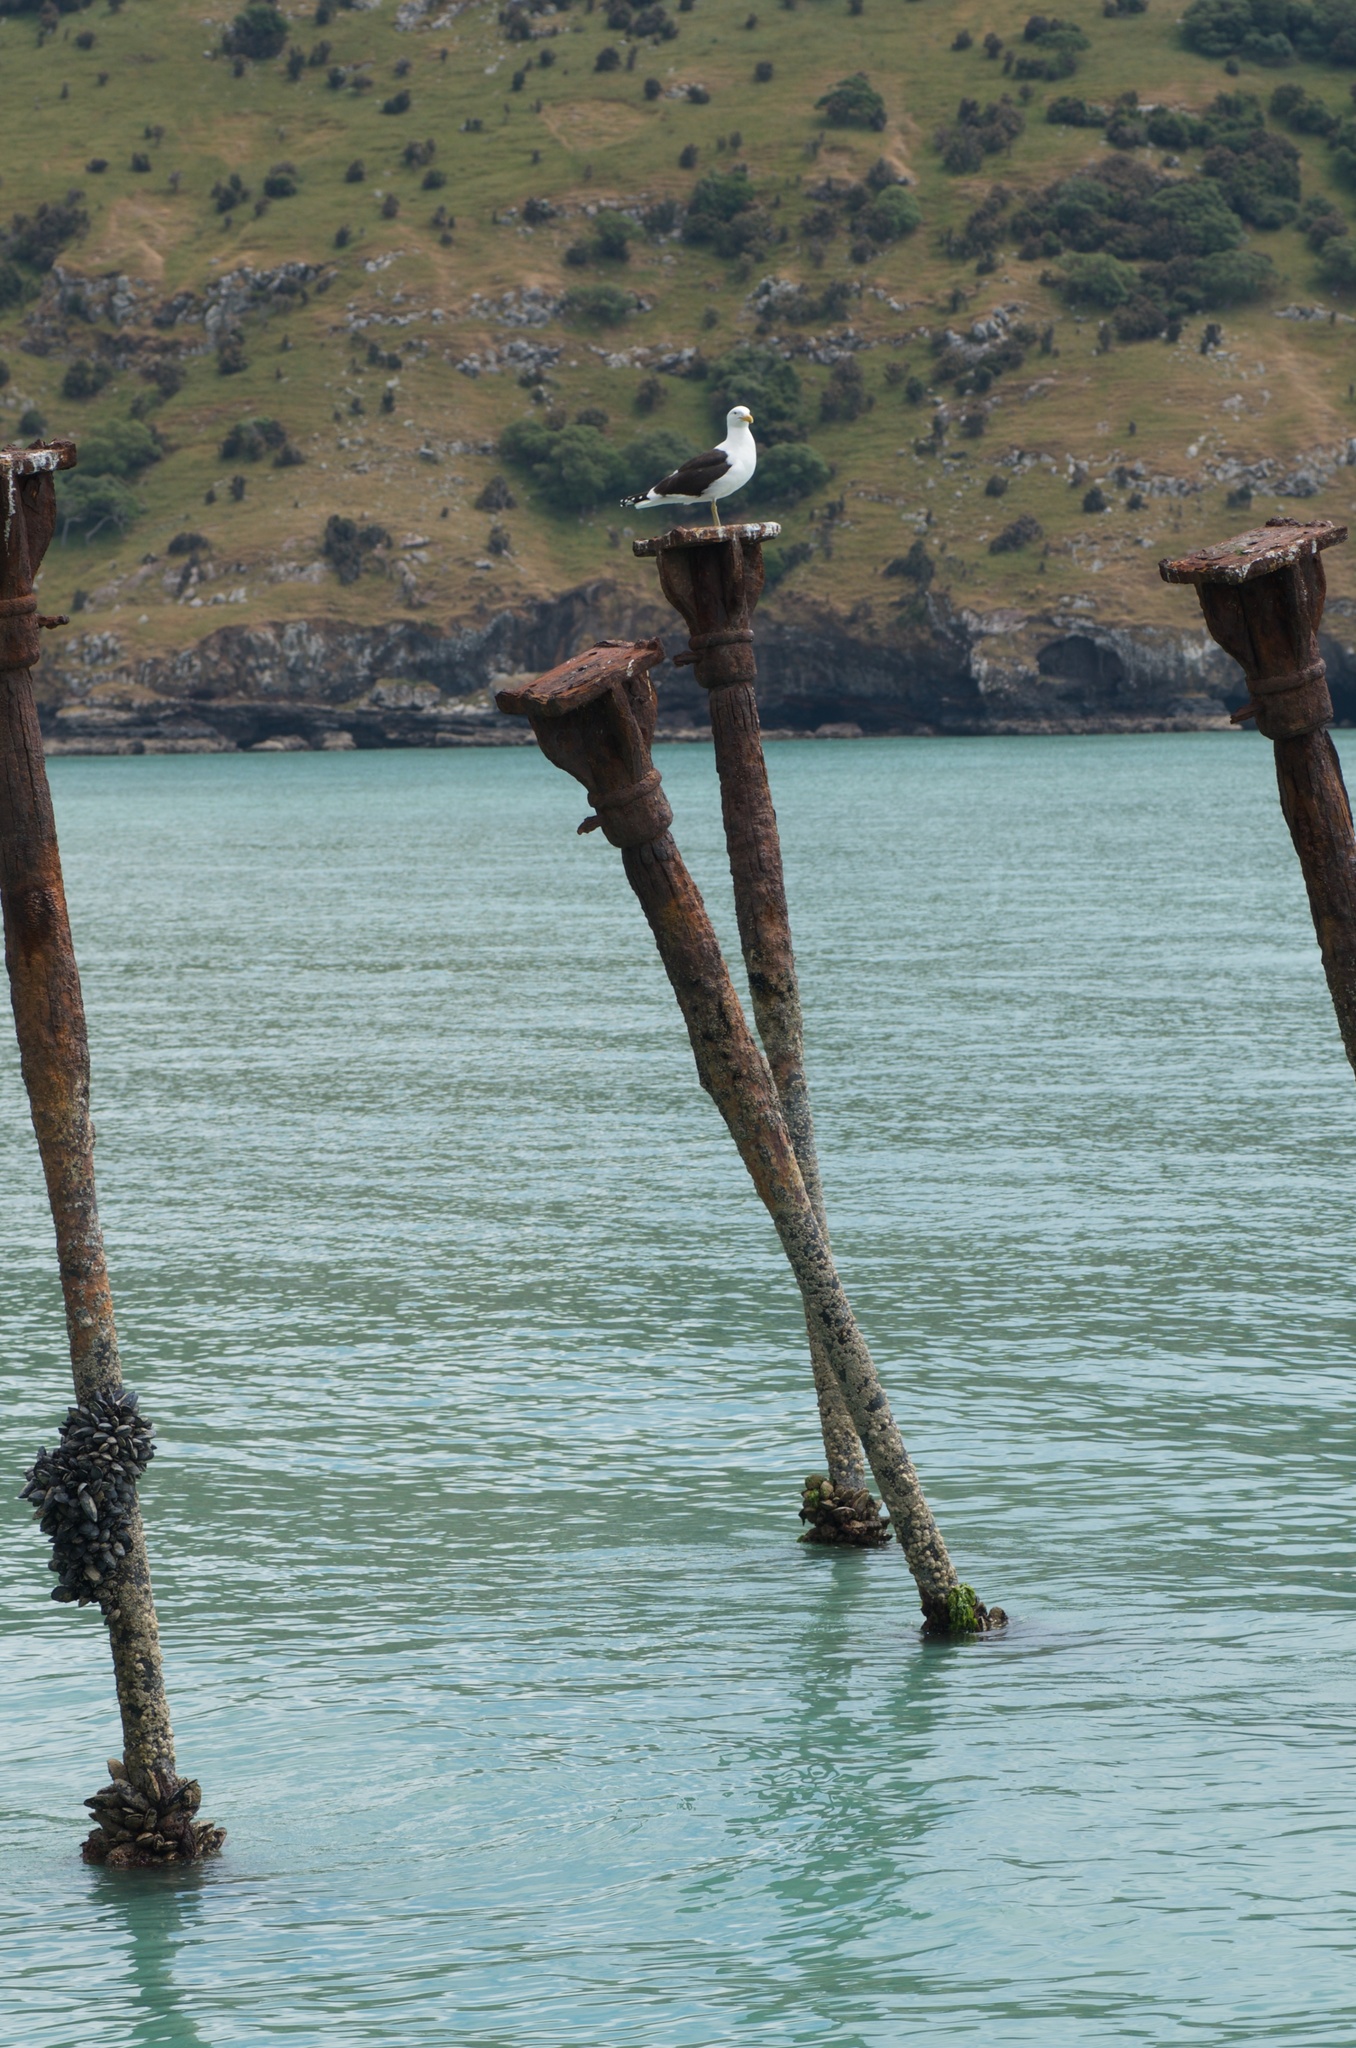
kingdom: Animalia
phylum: Chordata
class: Aves
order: Charadriiformes
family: Laridae
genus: Larus
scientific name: Larus dominicanus
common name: Kelp gull
